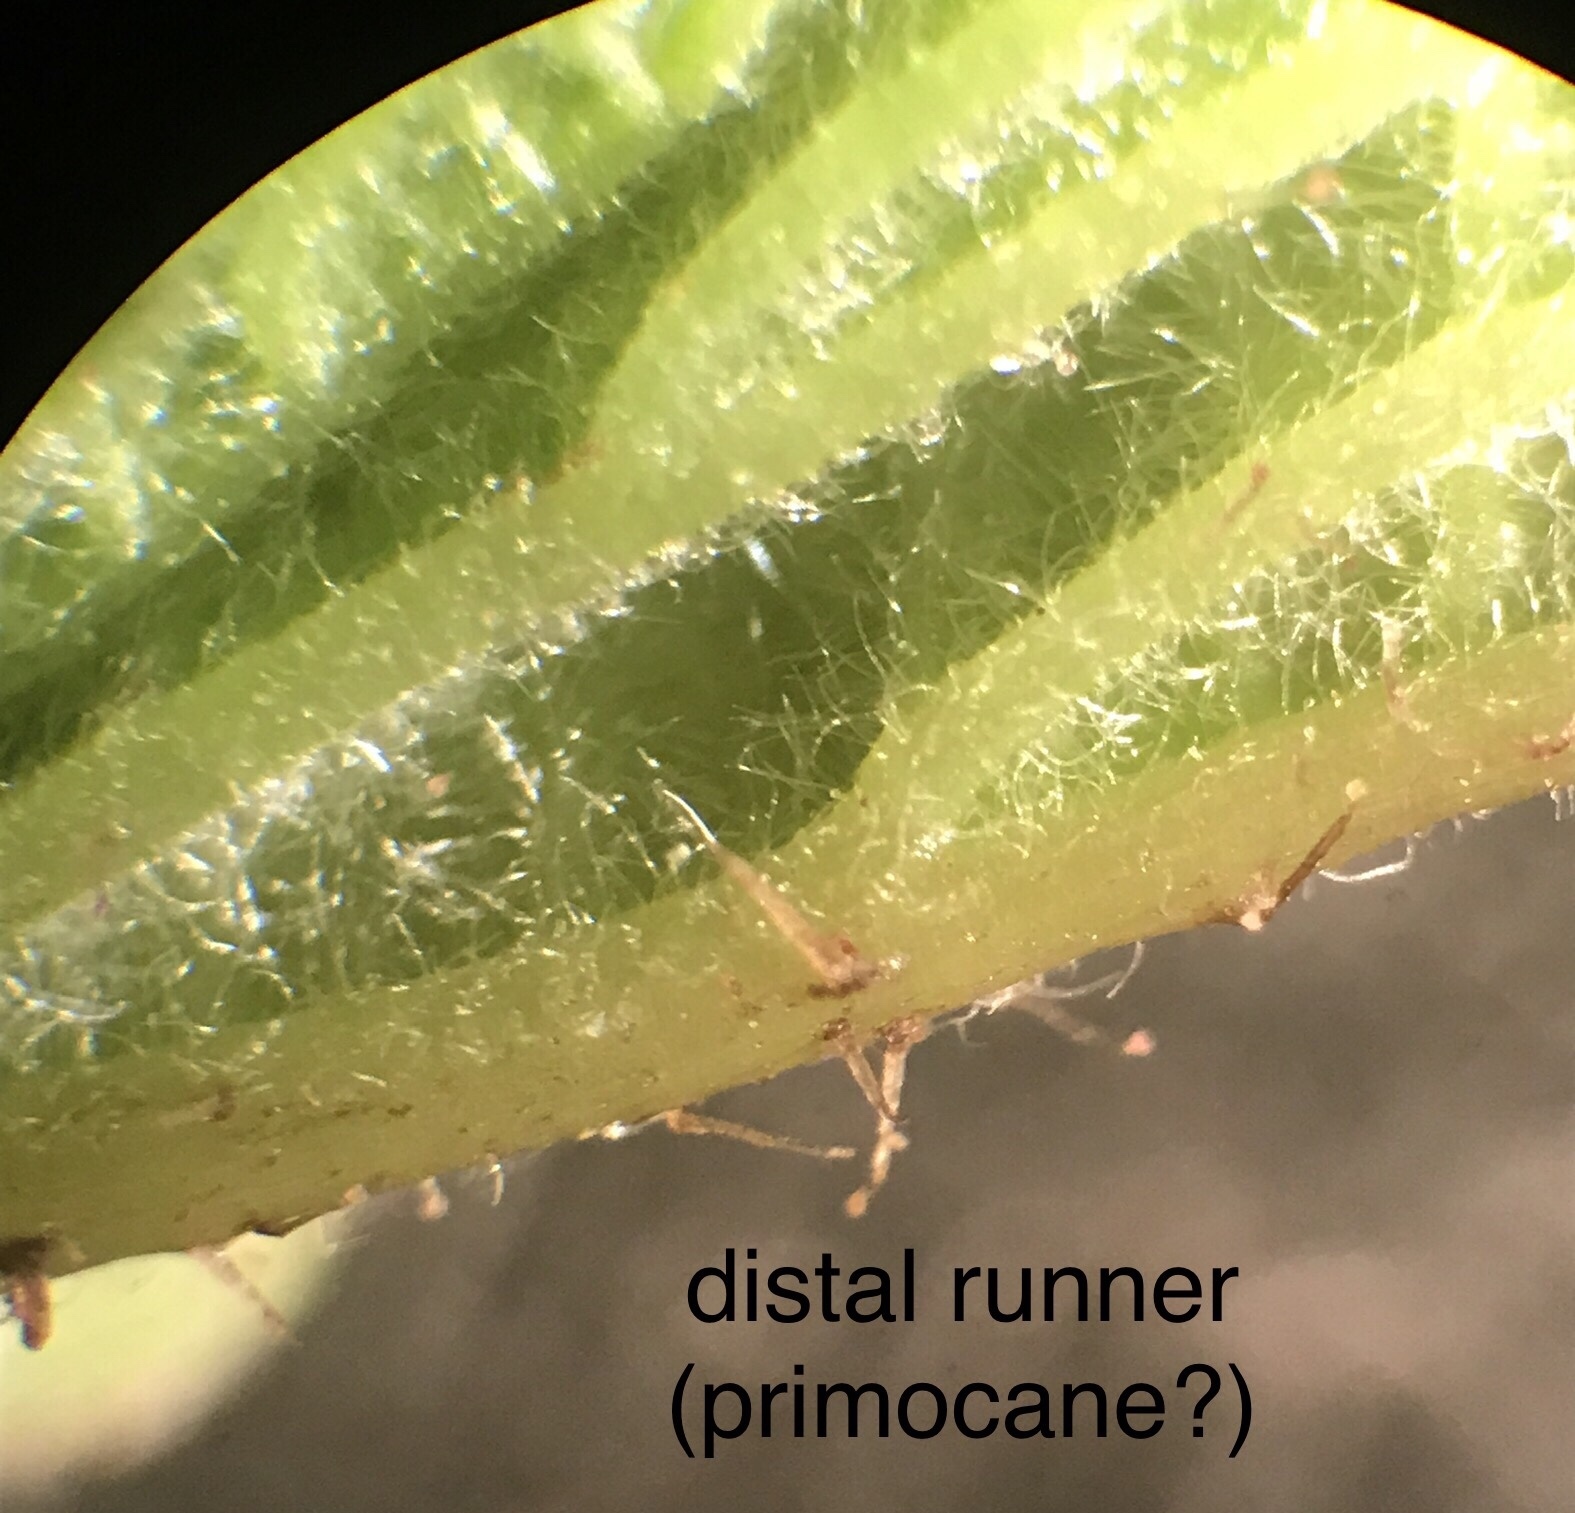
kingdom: Plantae
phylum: Tracheophyta
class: Magnoliopsida
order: Rosales
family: Rosaceae
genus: Rubus
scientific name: Rubus caesius
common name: Dewberry
